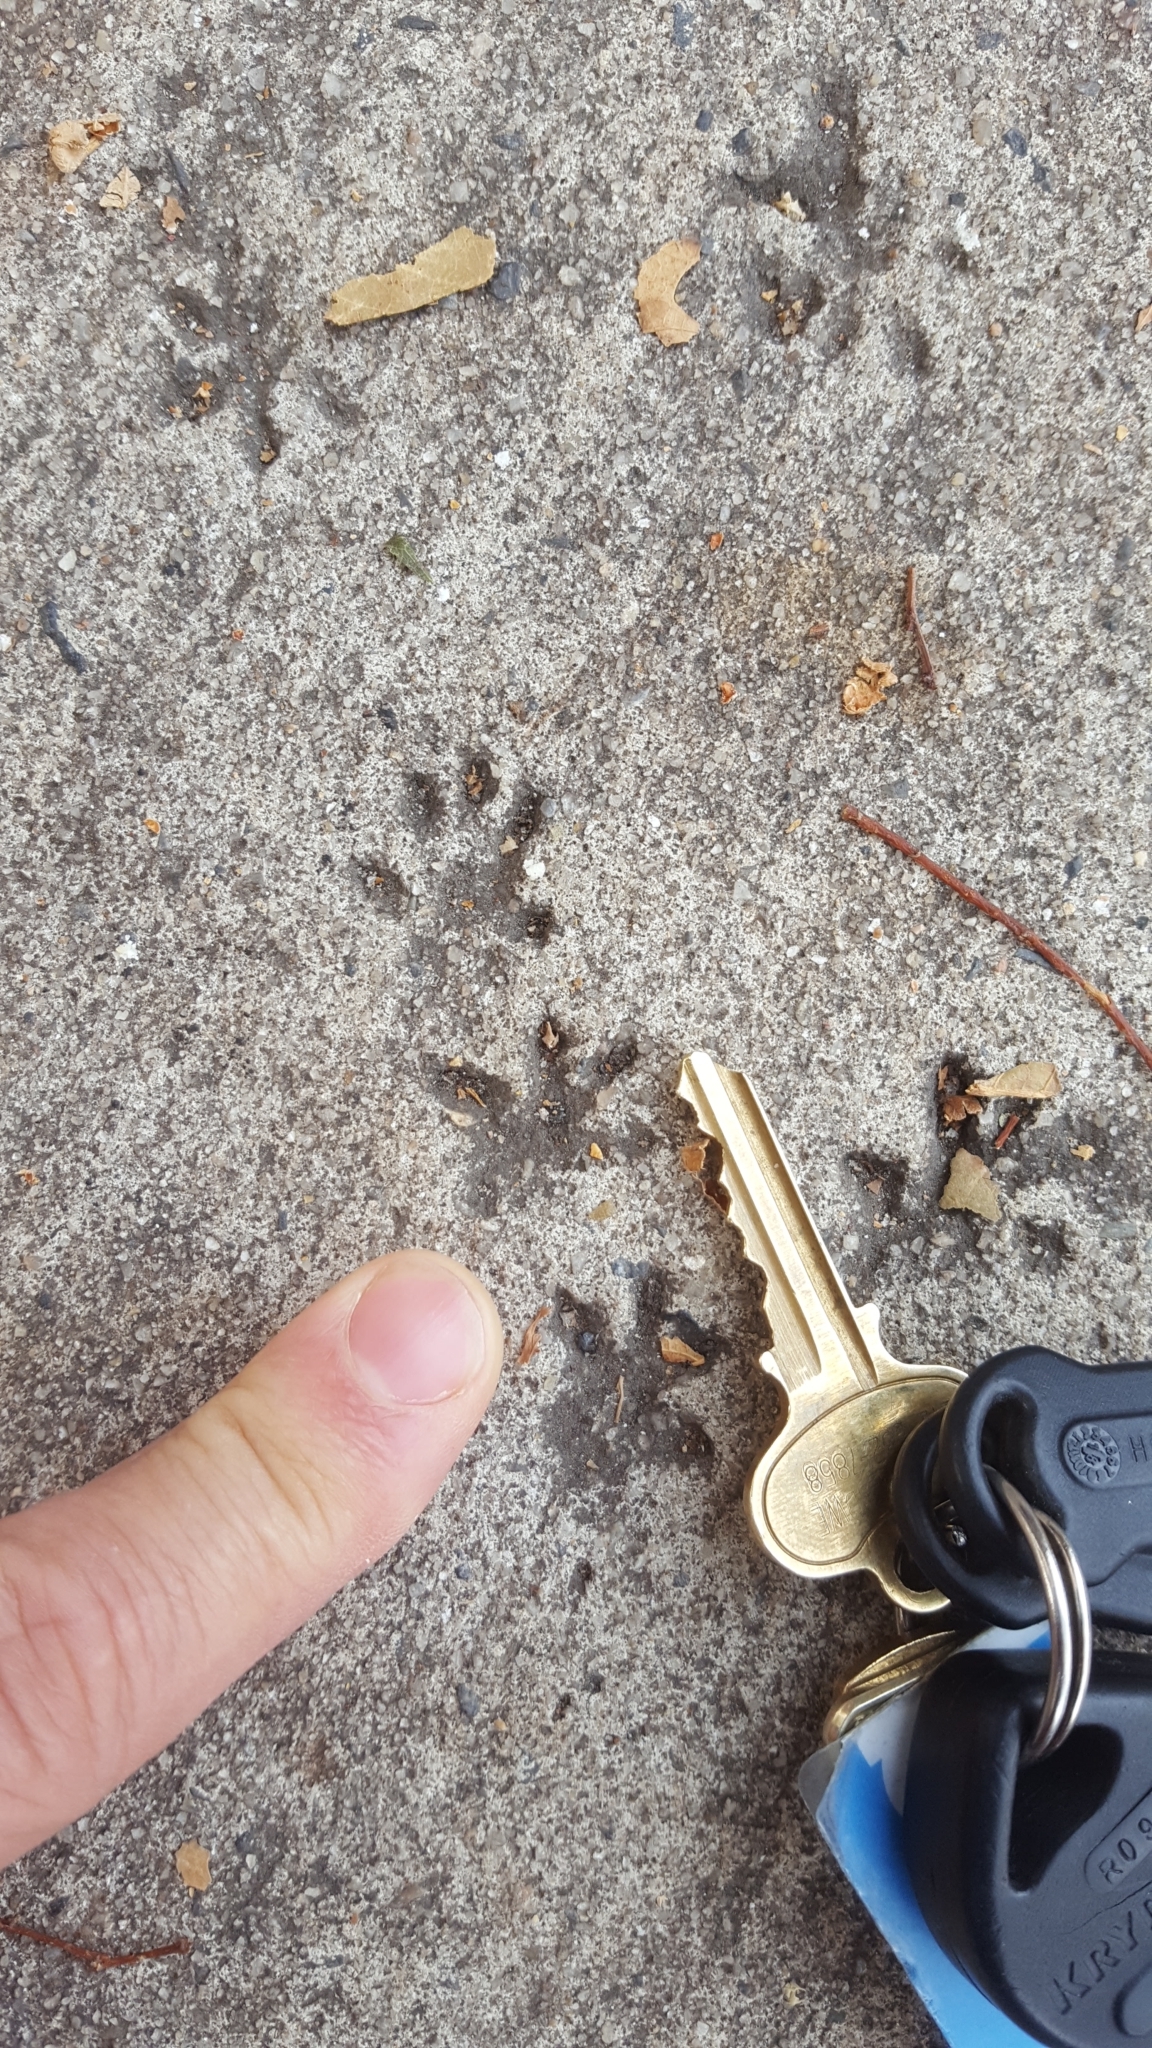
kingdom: Animalia
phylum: Chordata
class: Mammalia
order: Rodentia
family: Muridae
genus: Rattus
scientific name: Rattus norvegicus
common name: Brown rat
